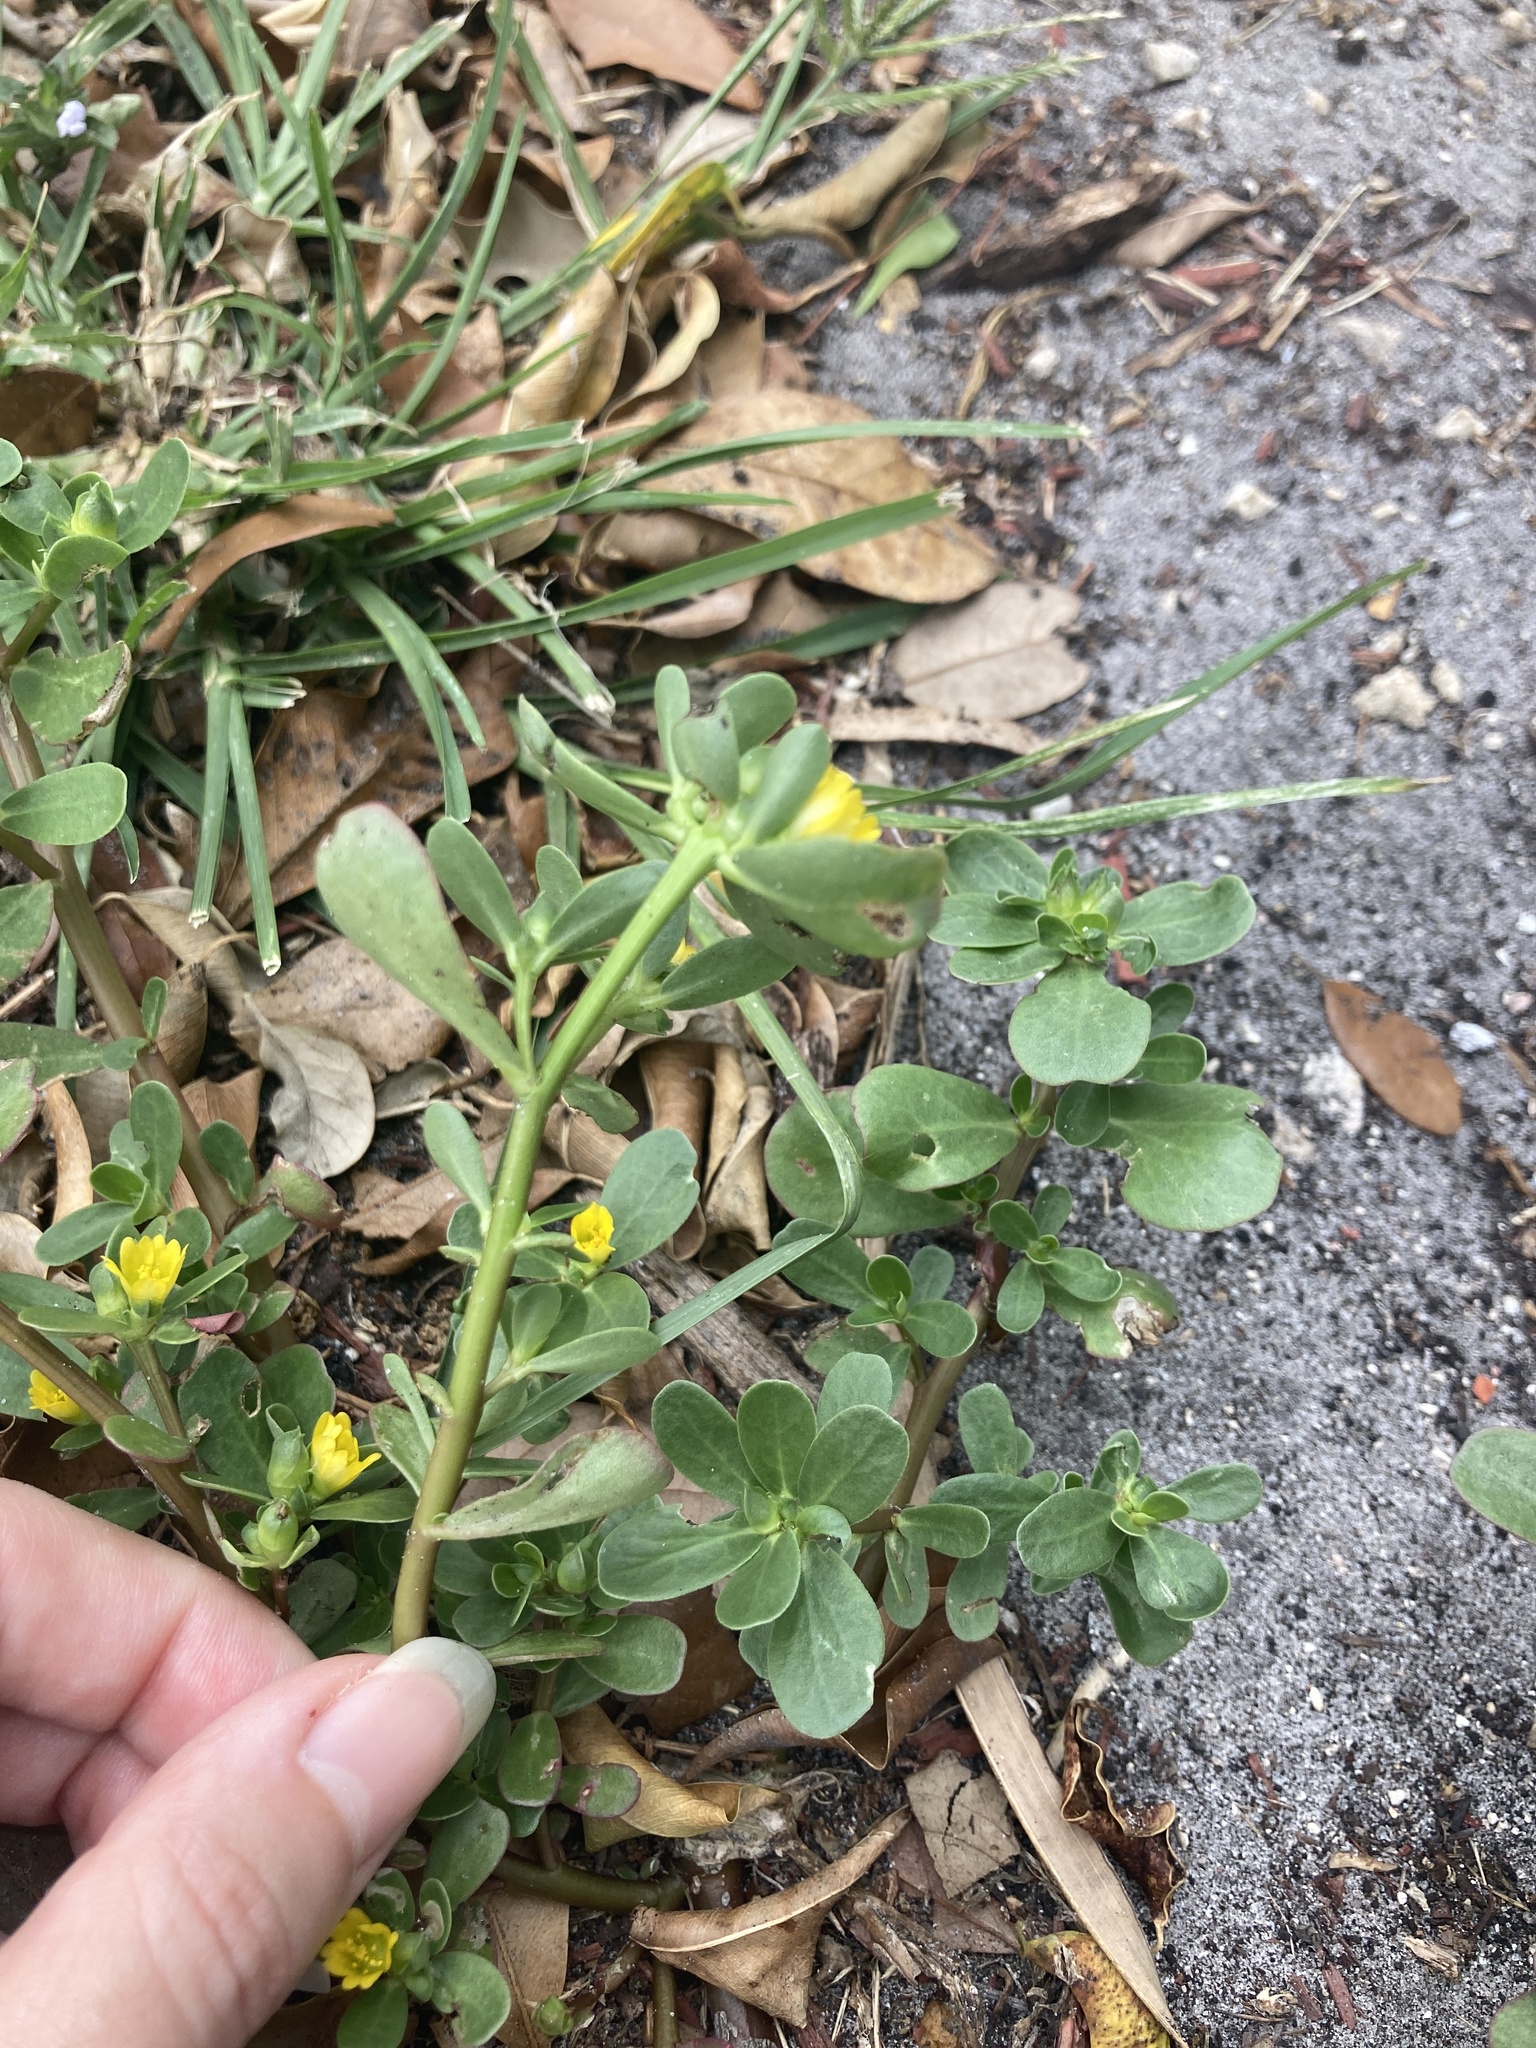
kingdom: Plantae
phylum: Tracheophyta
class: Magnoliopsida
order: Caryophyllales
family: Portulacaceae
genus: Portulaca
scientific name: Portulaca oleracea
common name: Common purslane
